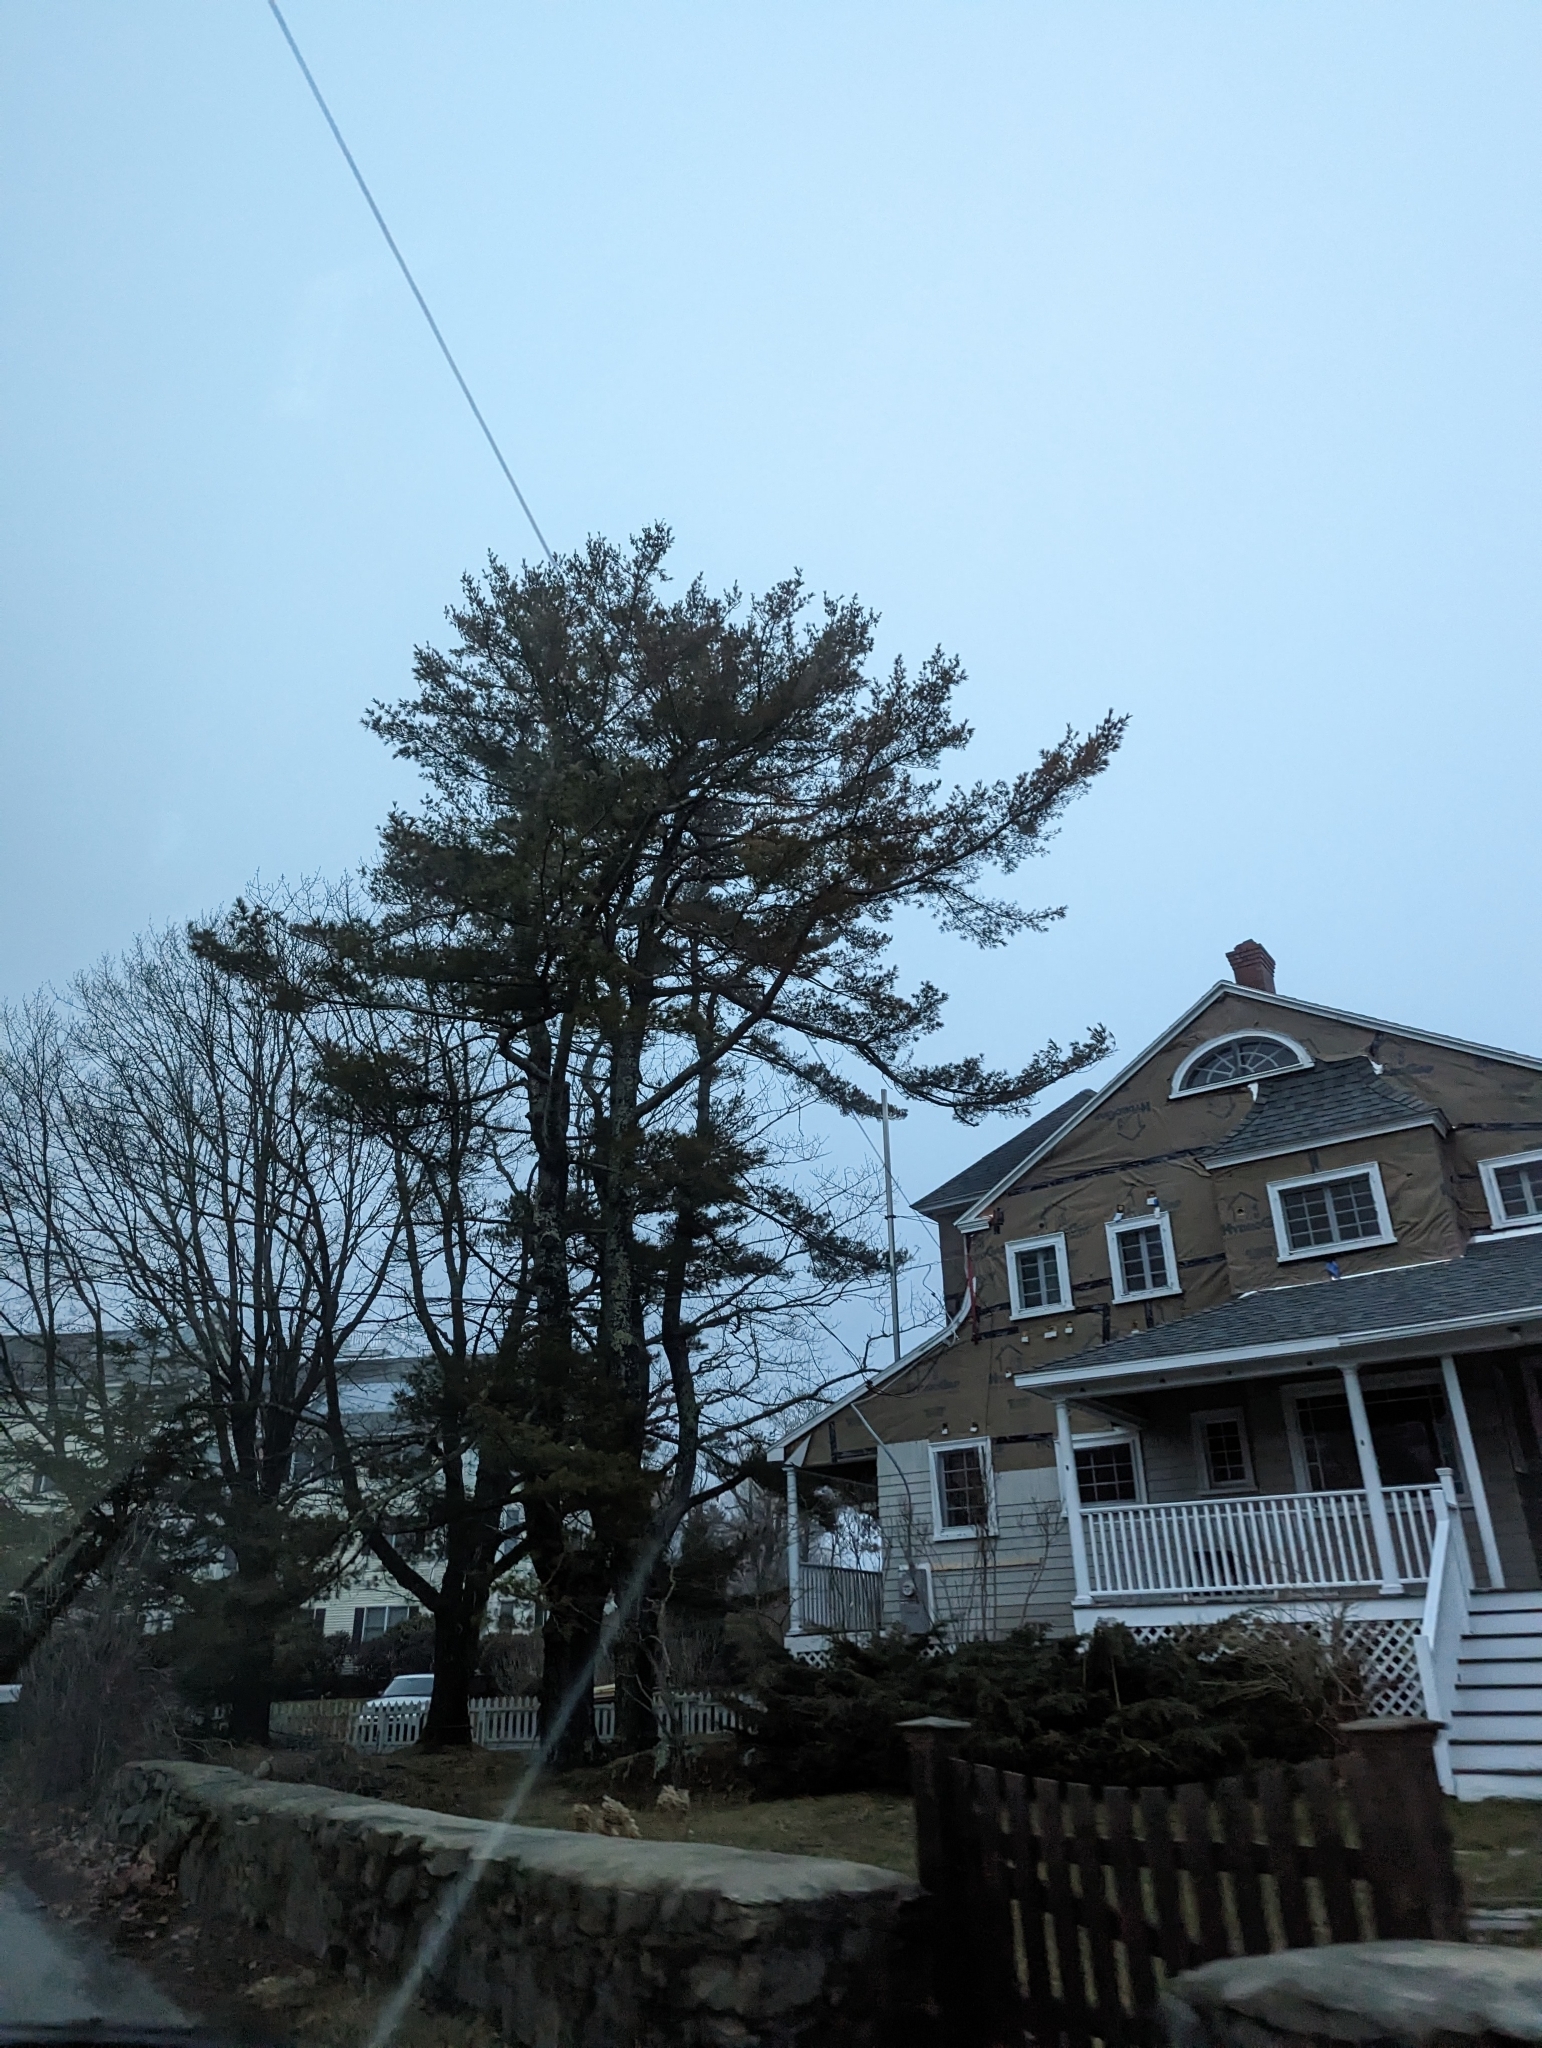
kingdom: Plantae
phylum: Tracheophyta
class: Pinopsida
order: Pinales
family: Pinaceae
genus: Pinus
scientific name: Pinus strobus
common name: Weymouth pine
